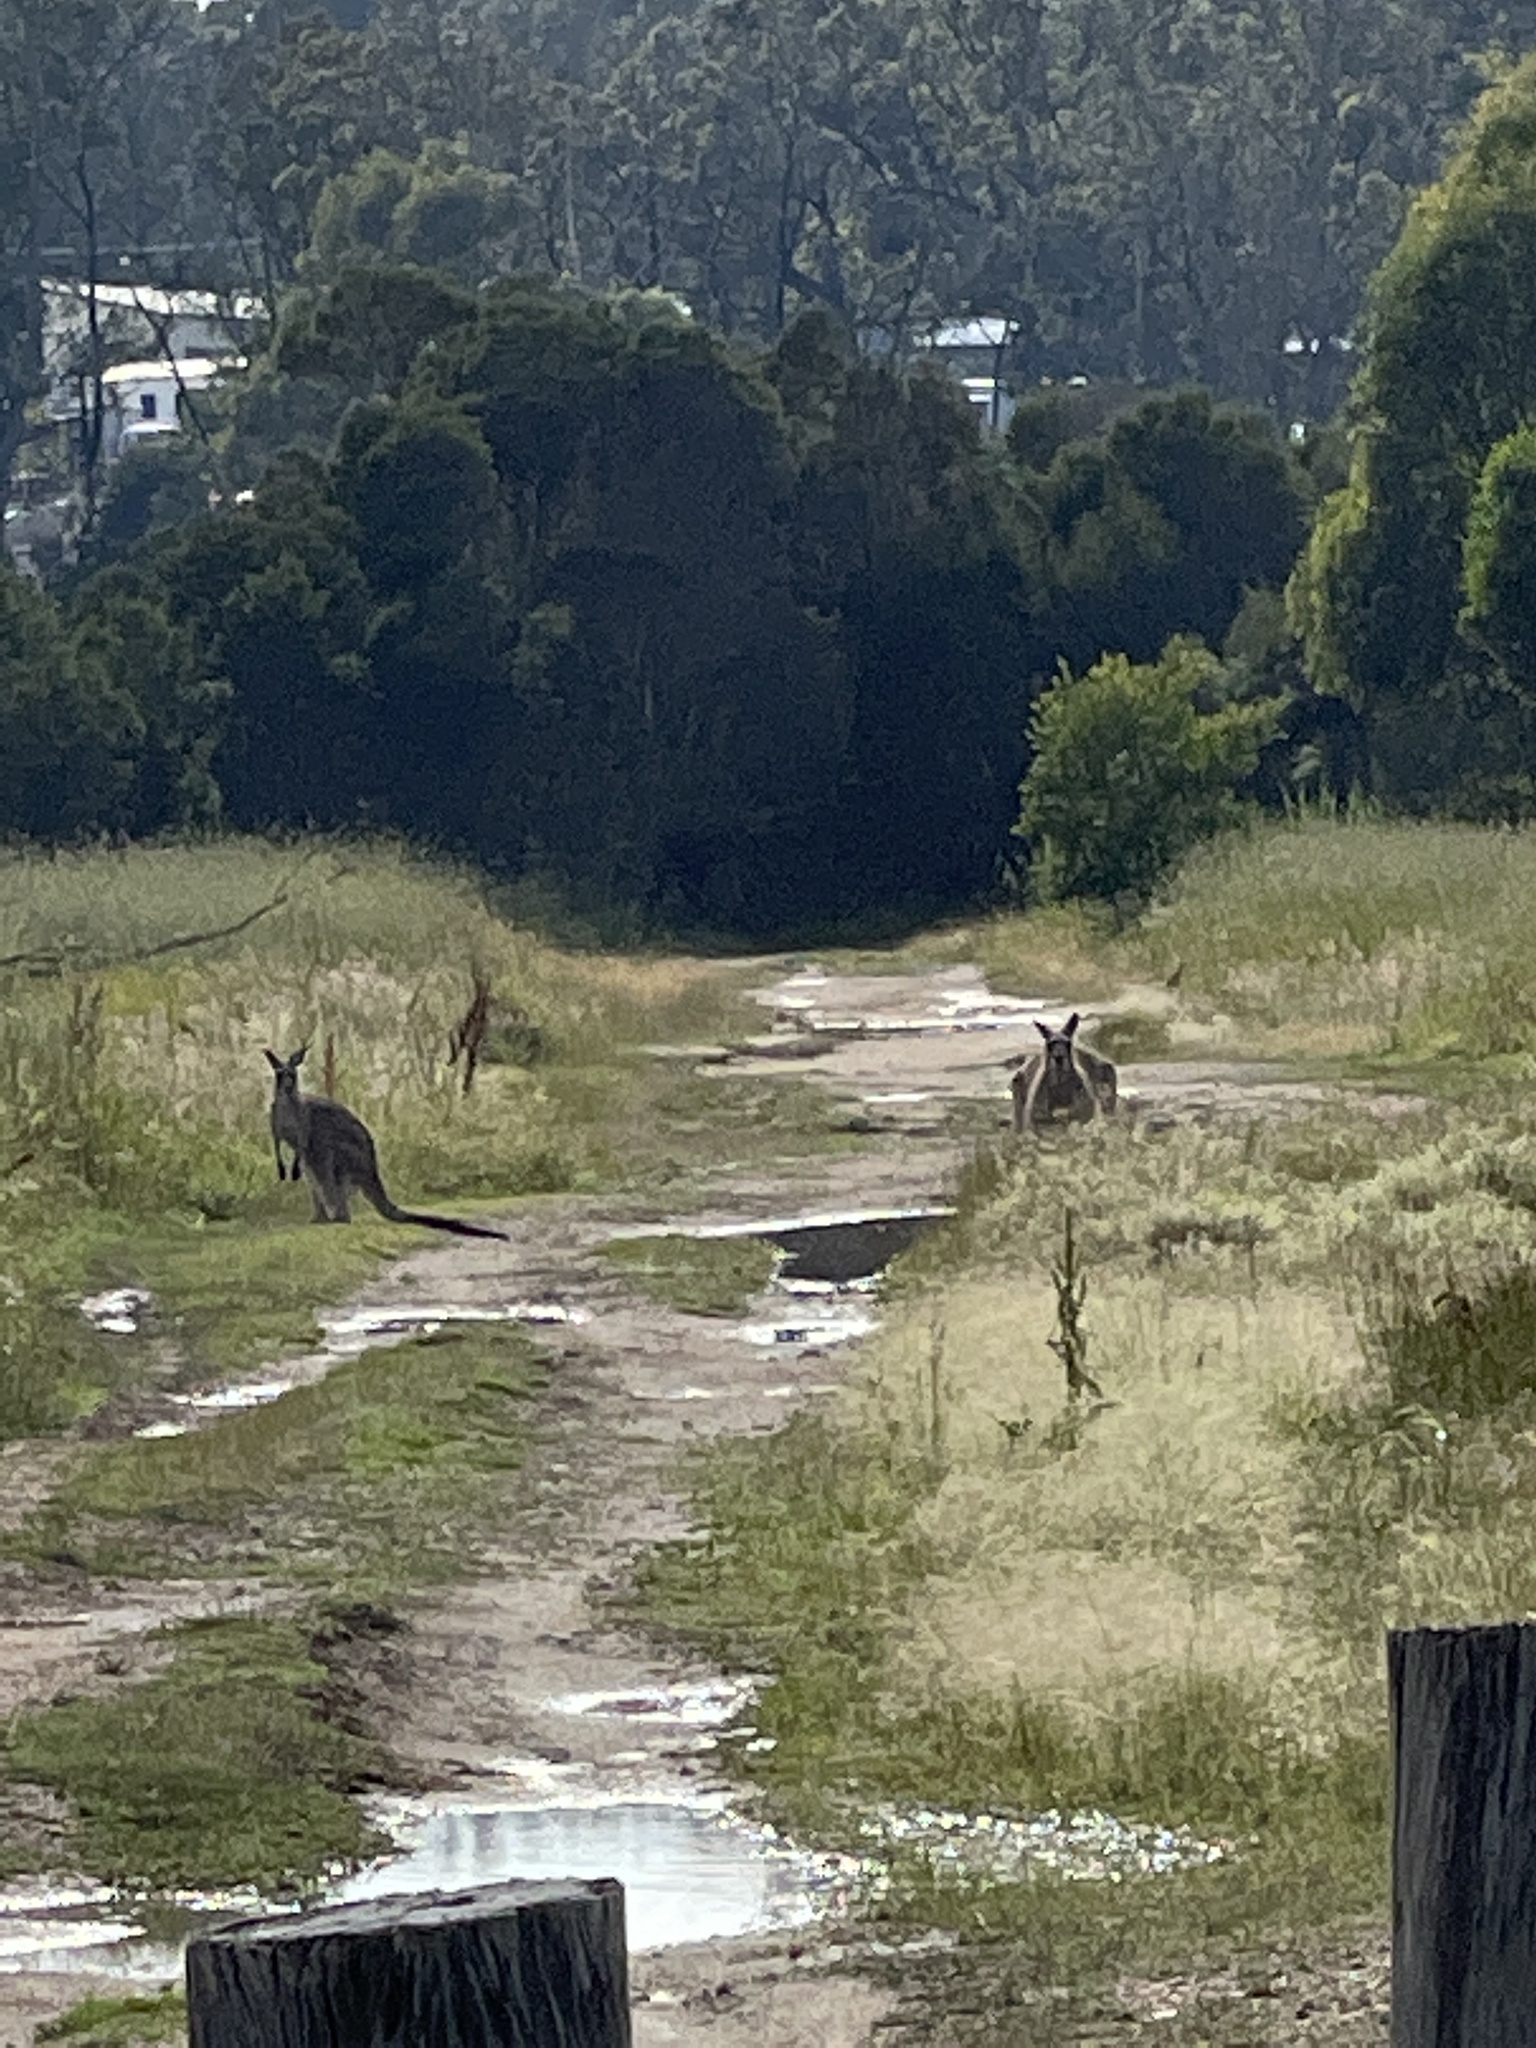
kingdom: Animalia
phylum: Chordata
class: Mammalia
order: Diprotodontia
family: Macropodidae
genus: Macropus
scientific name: Macropus giganteus
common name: Eastern grey kangaroo
